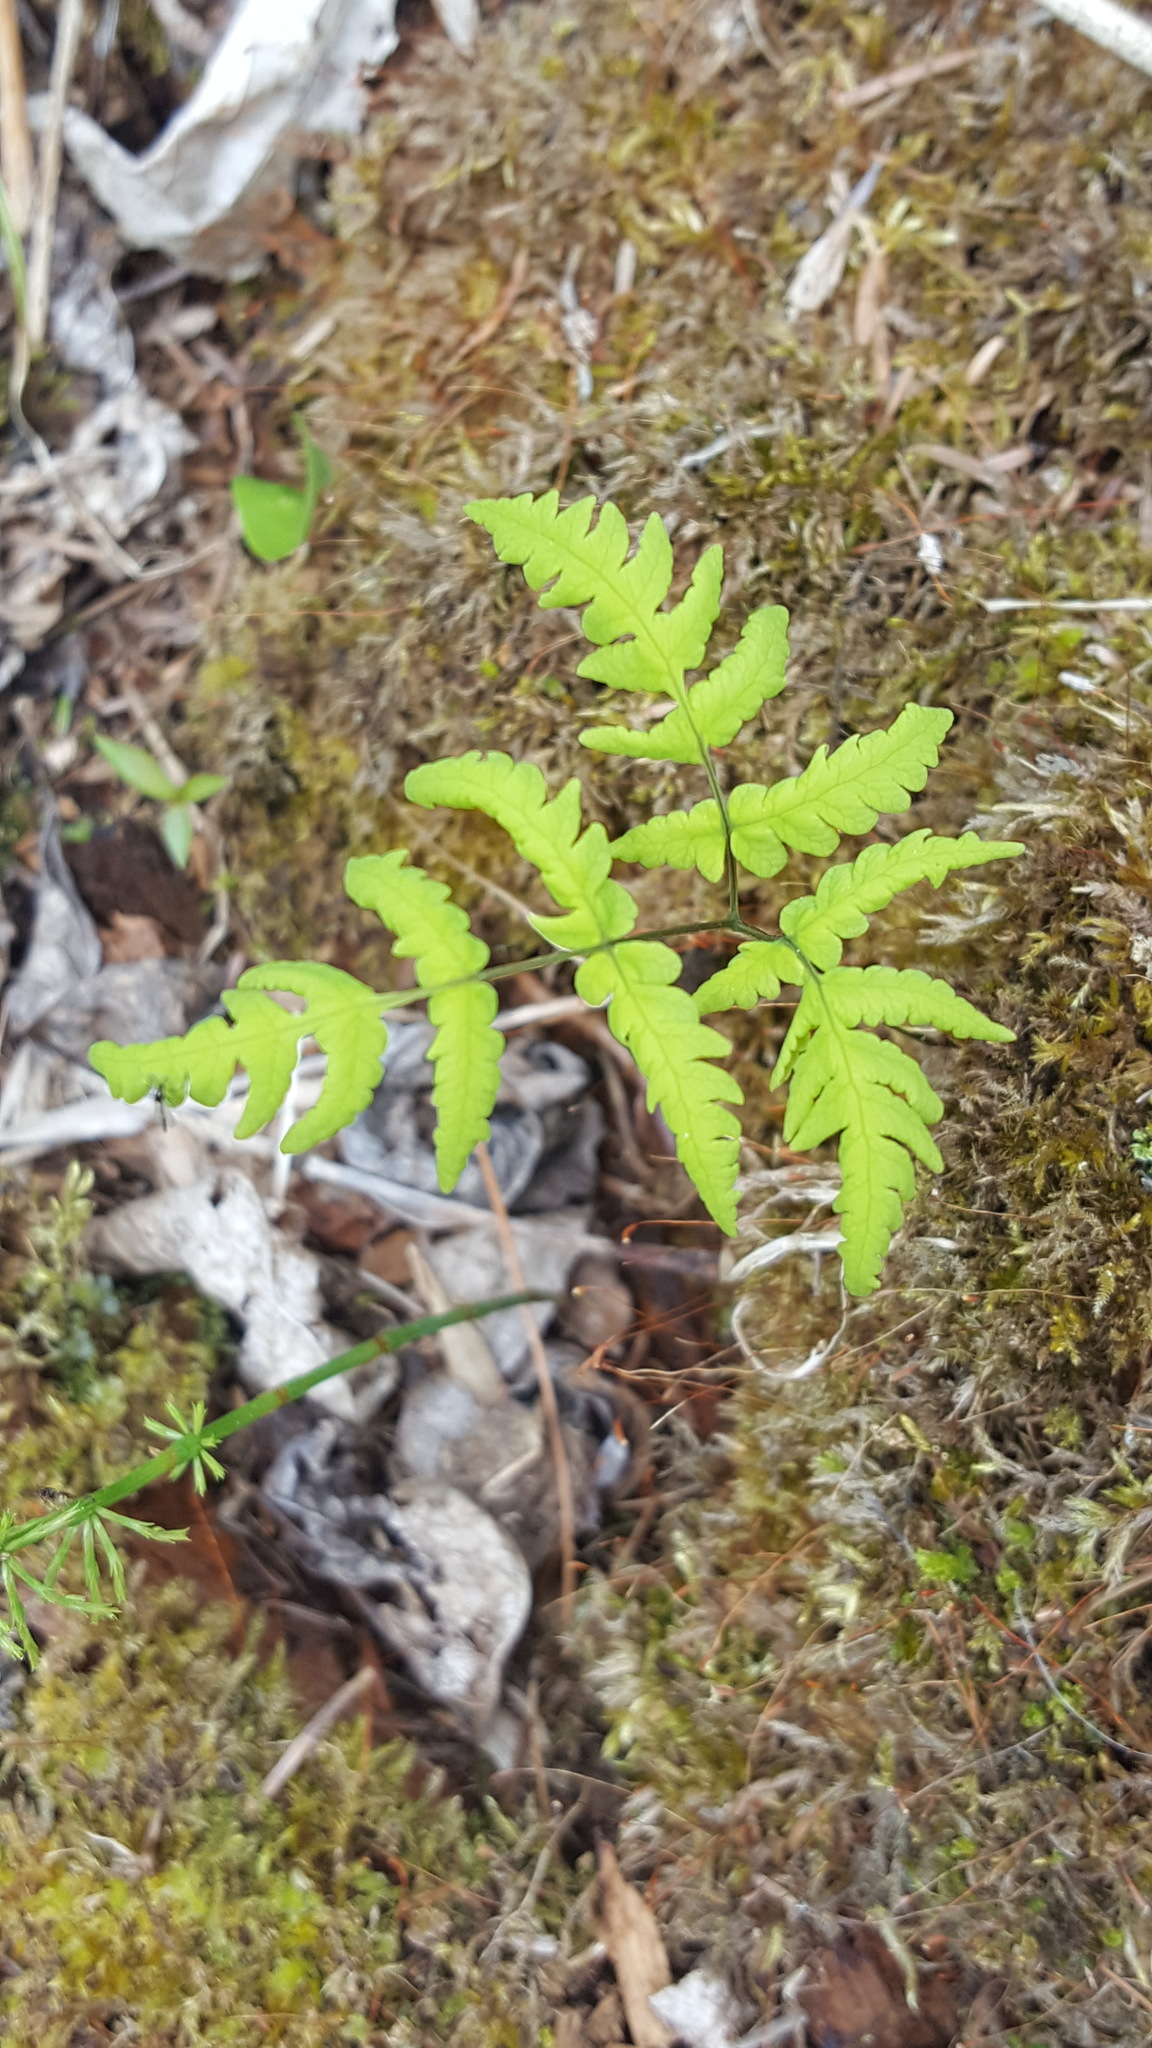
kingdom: Plantae
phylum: Tracheophyta
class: Polypodiopsida
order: Polypodiales
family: Cystopteridaceae
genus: Gymnocarpium
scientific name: Gymnocarpium dryopteris
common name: Oak fern
